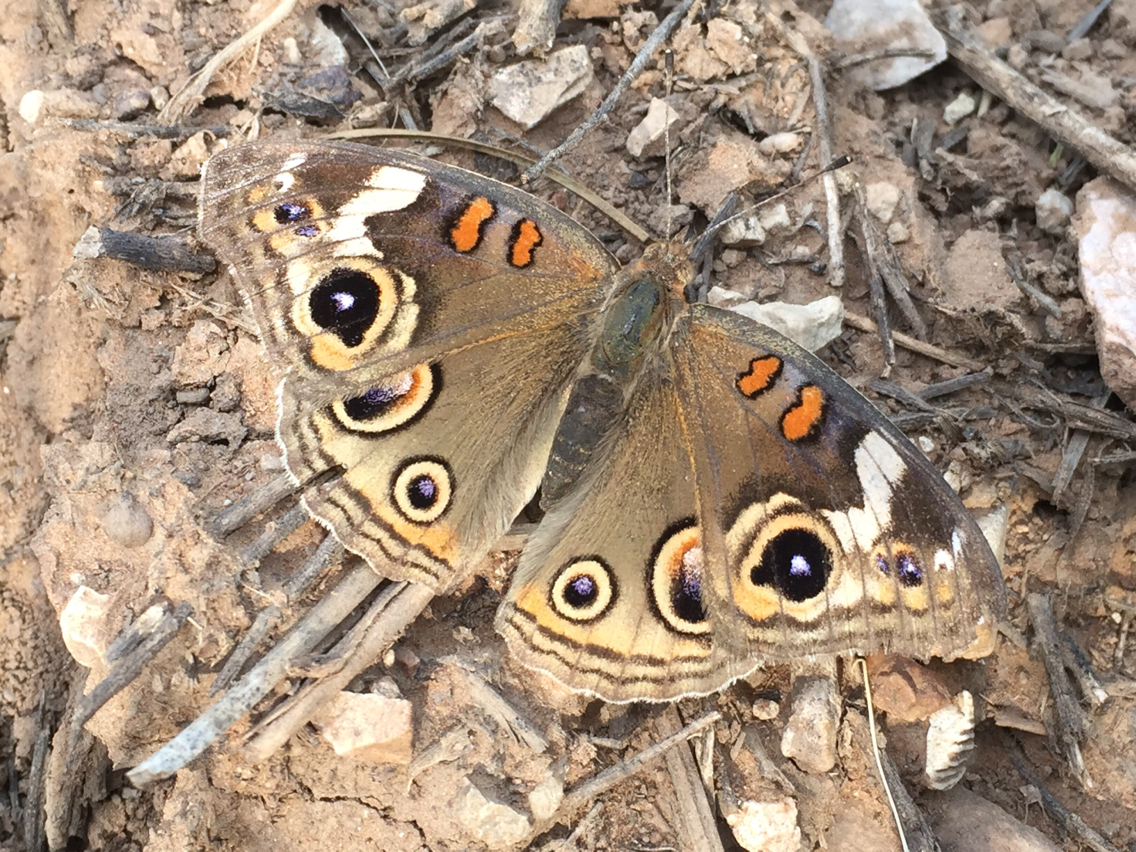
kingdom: Animalia
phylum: Arthropoda
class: Insecta
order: Lepidoptera
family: Nymphalidae
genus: Junonia
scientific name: Junonia grisea
